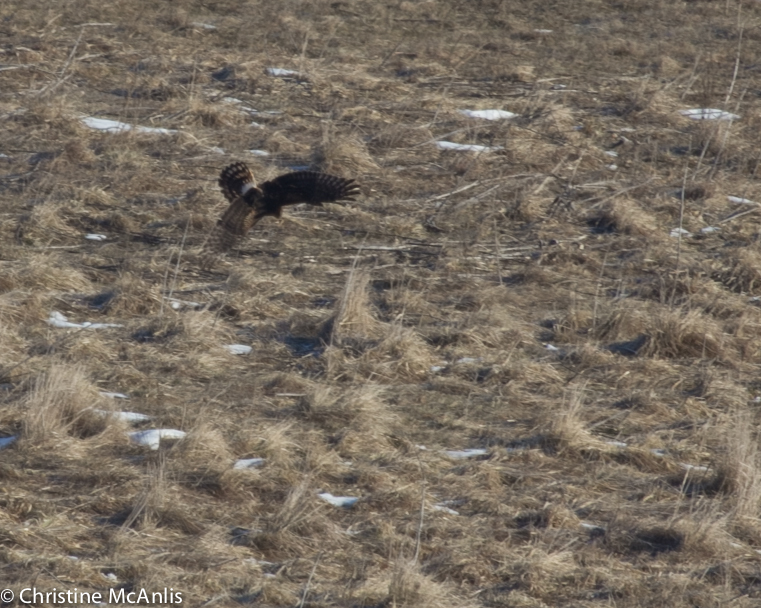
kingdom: Animalia
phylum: Chordata
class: Aves
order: Accipitriformes
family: Accipitridae
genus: Circus
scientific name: Circus cyaneus
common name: Hen harrier
